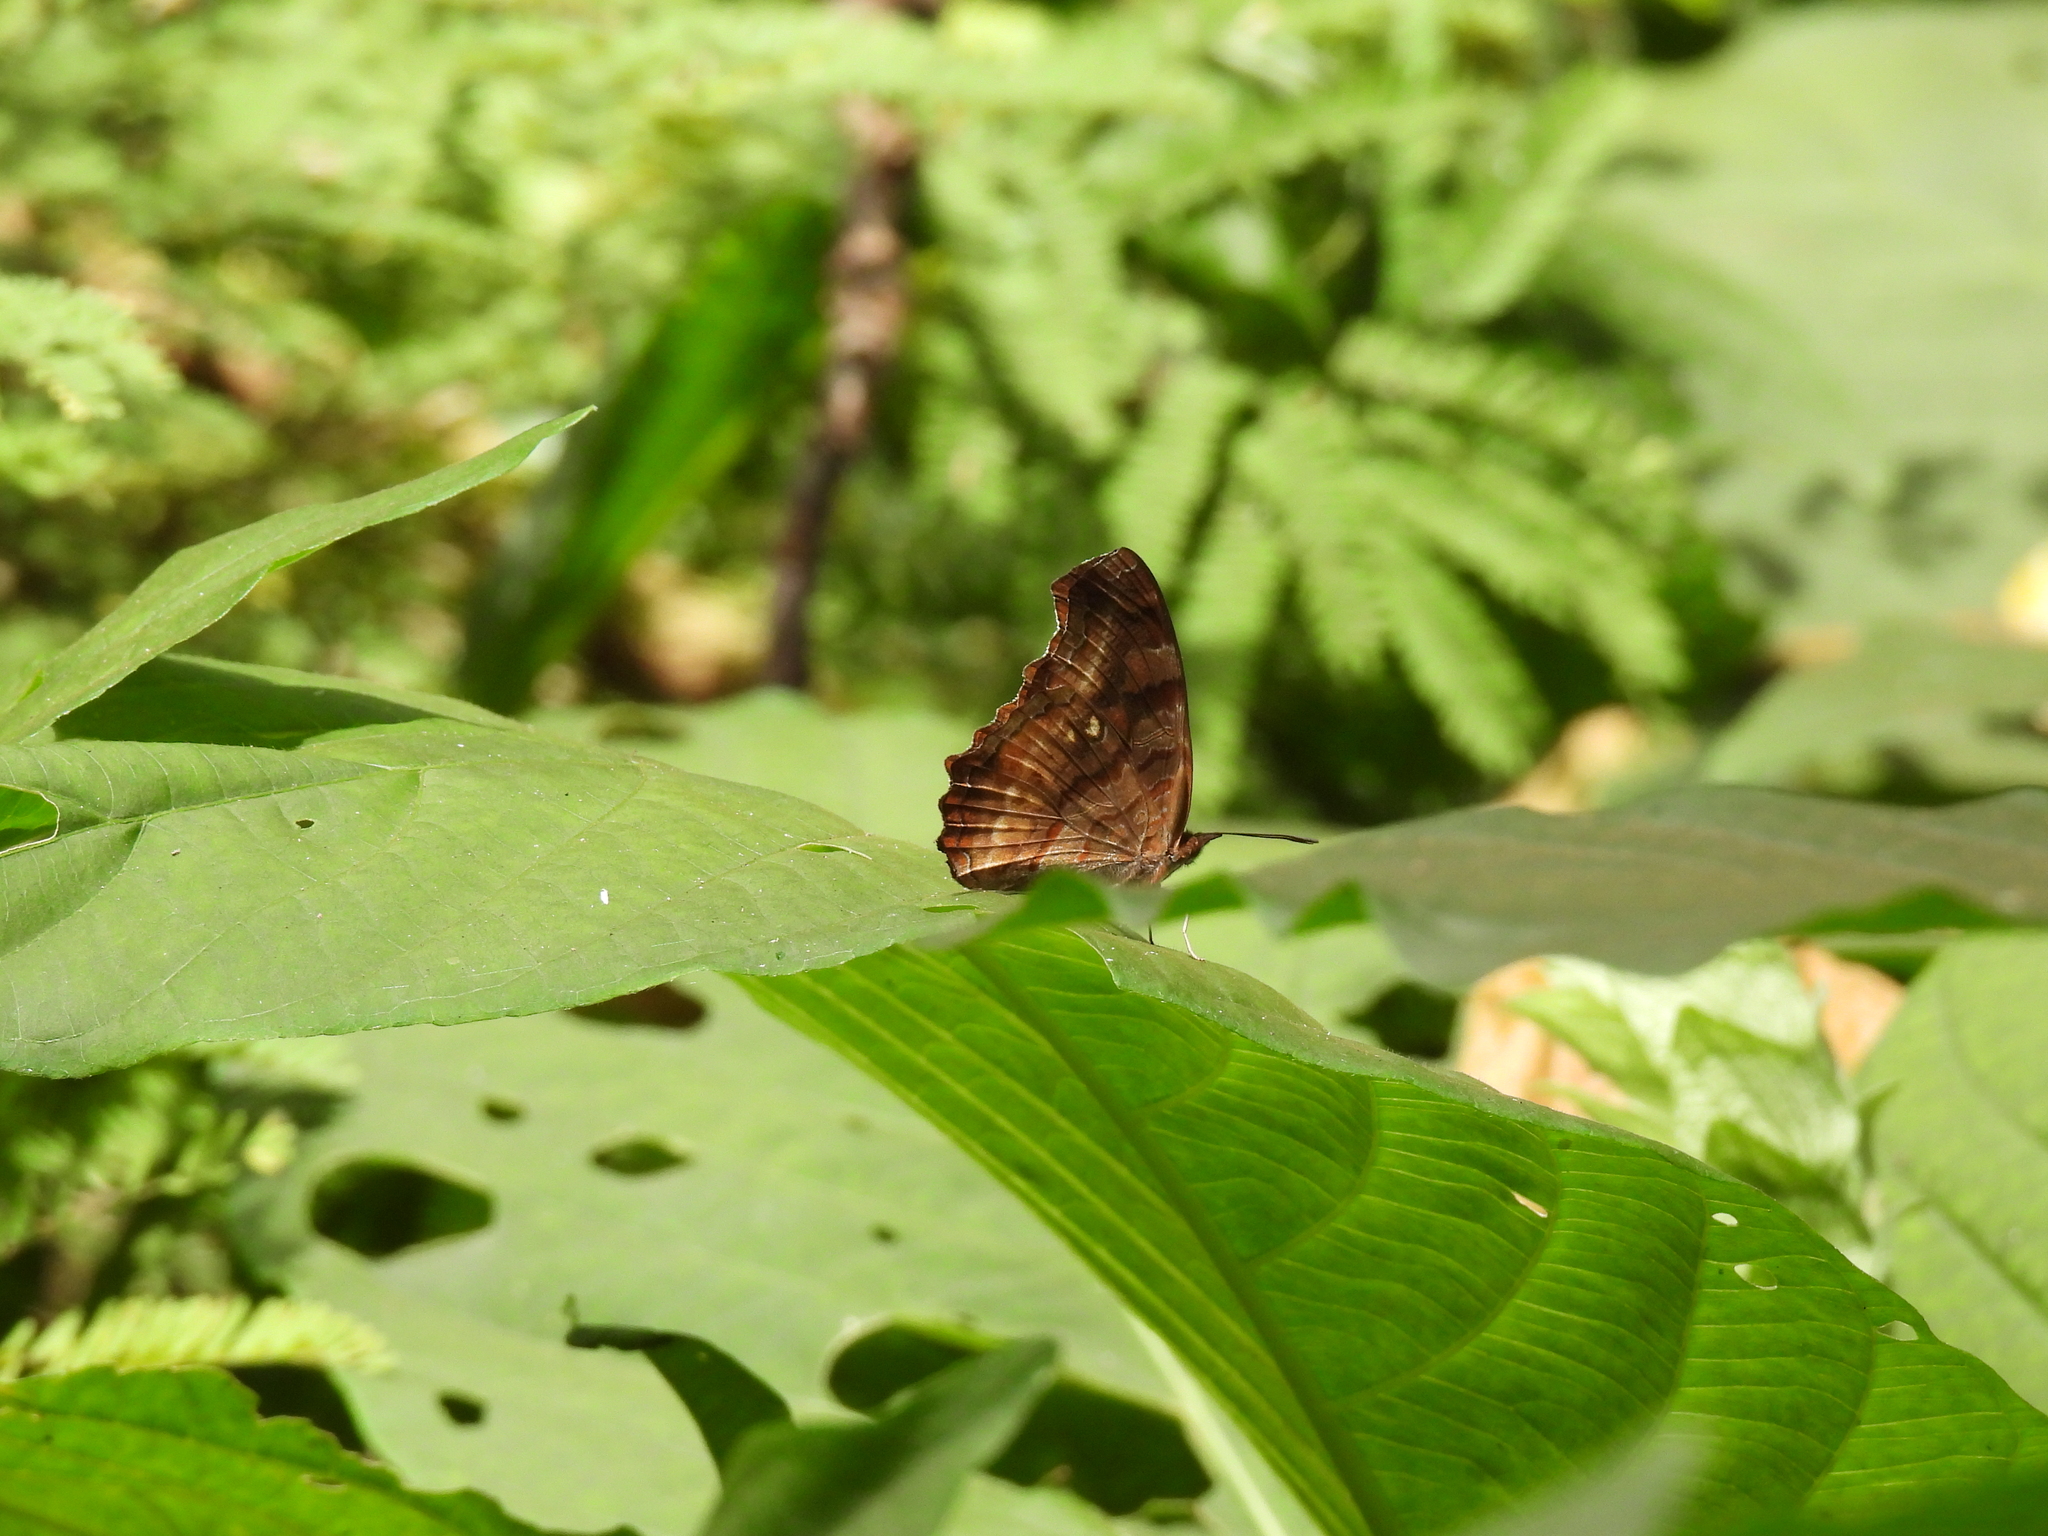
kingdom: Animalia
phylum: Arthropoda
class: Insecta
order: Lepidoptera
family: Nymphalidae
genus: Eurytela
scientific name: Eurytela dryope
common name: Golden piper
